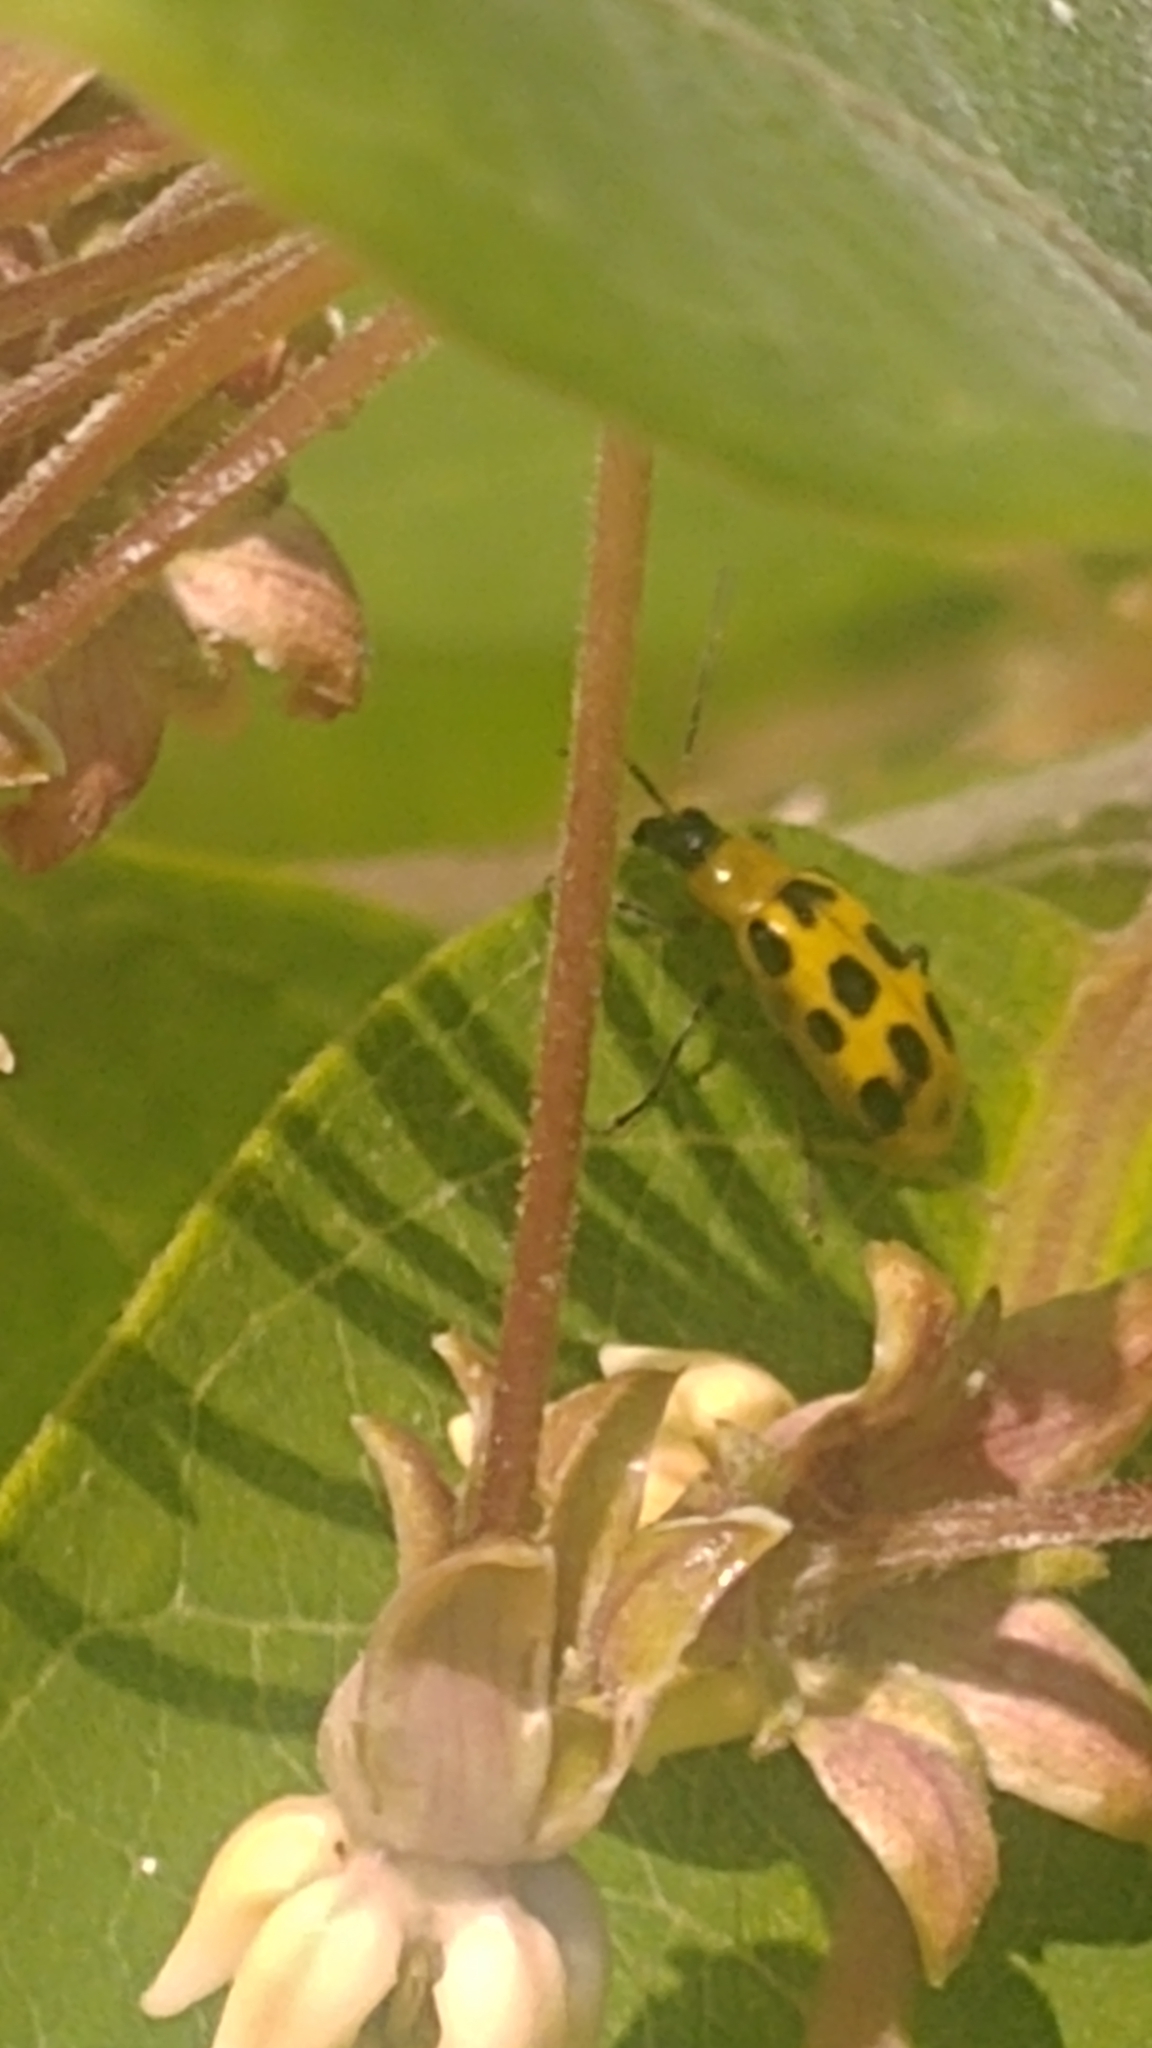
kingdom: Animalia
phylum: Arthropoda
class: Insecta
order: Coleoptera
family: Chrysomelidae
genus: Diabrotica
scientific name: Diabrotica undecimpunctata
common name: Spotted cucumber beetle
